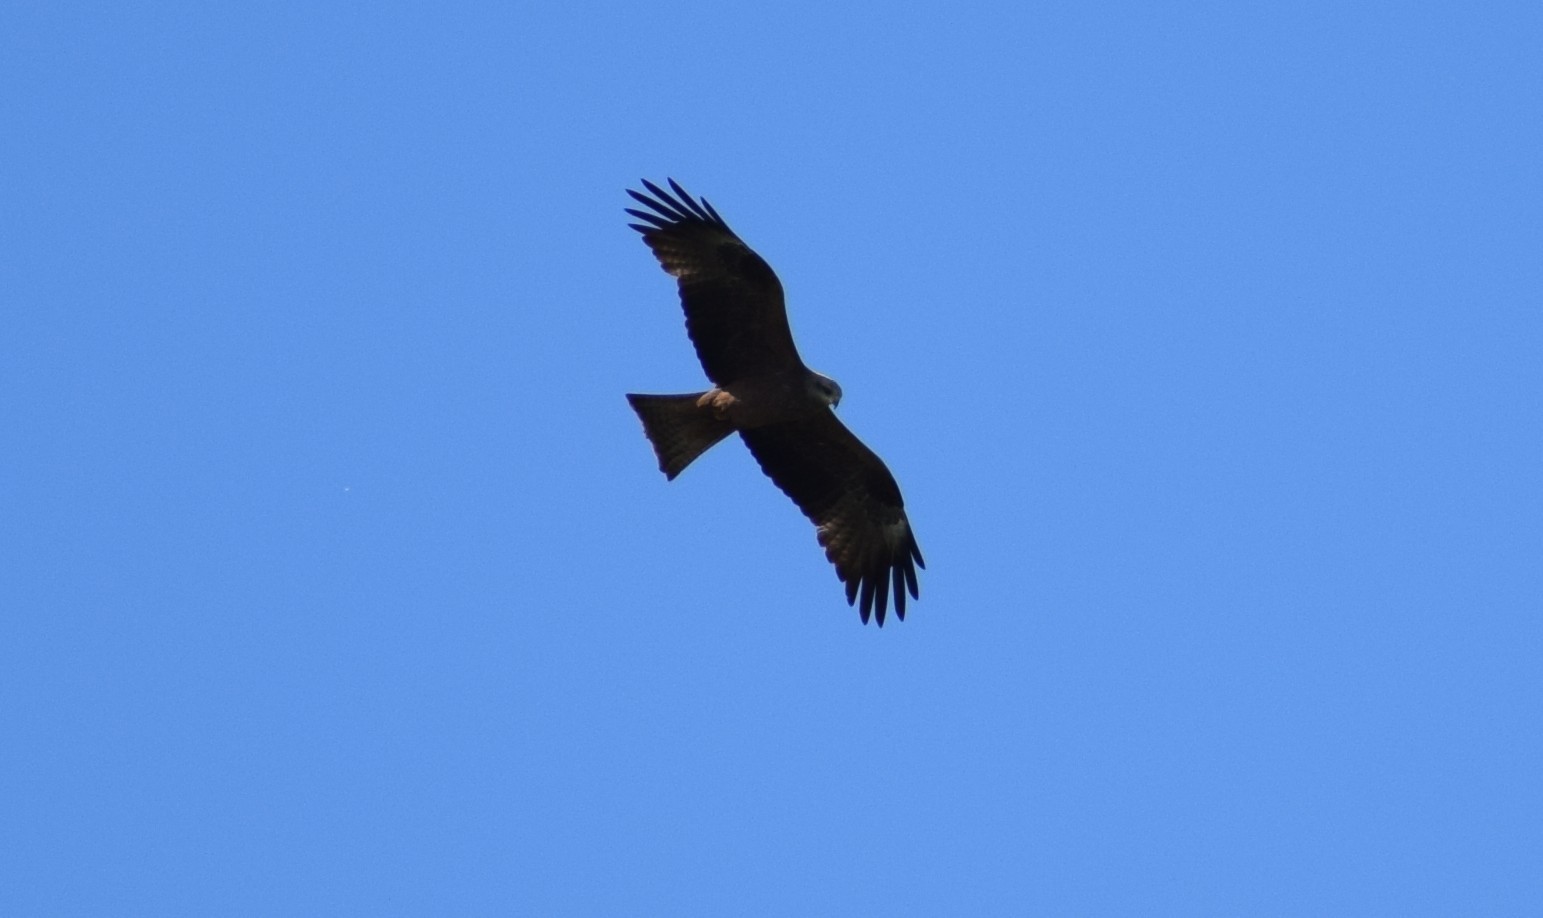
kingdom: Animalia
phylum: Chordata
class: Aves
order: Accipitriformes
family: Accipitridae
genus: Milvus
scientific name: Milvus migrans
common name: Black kite
